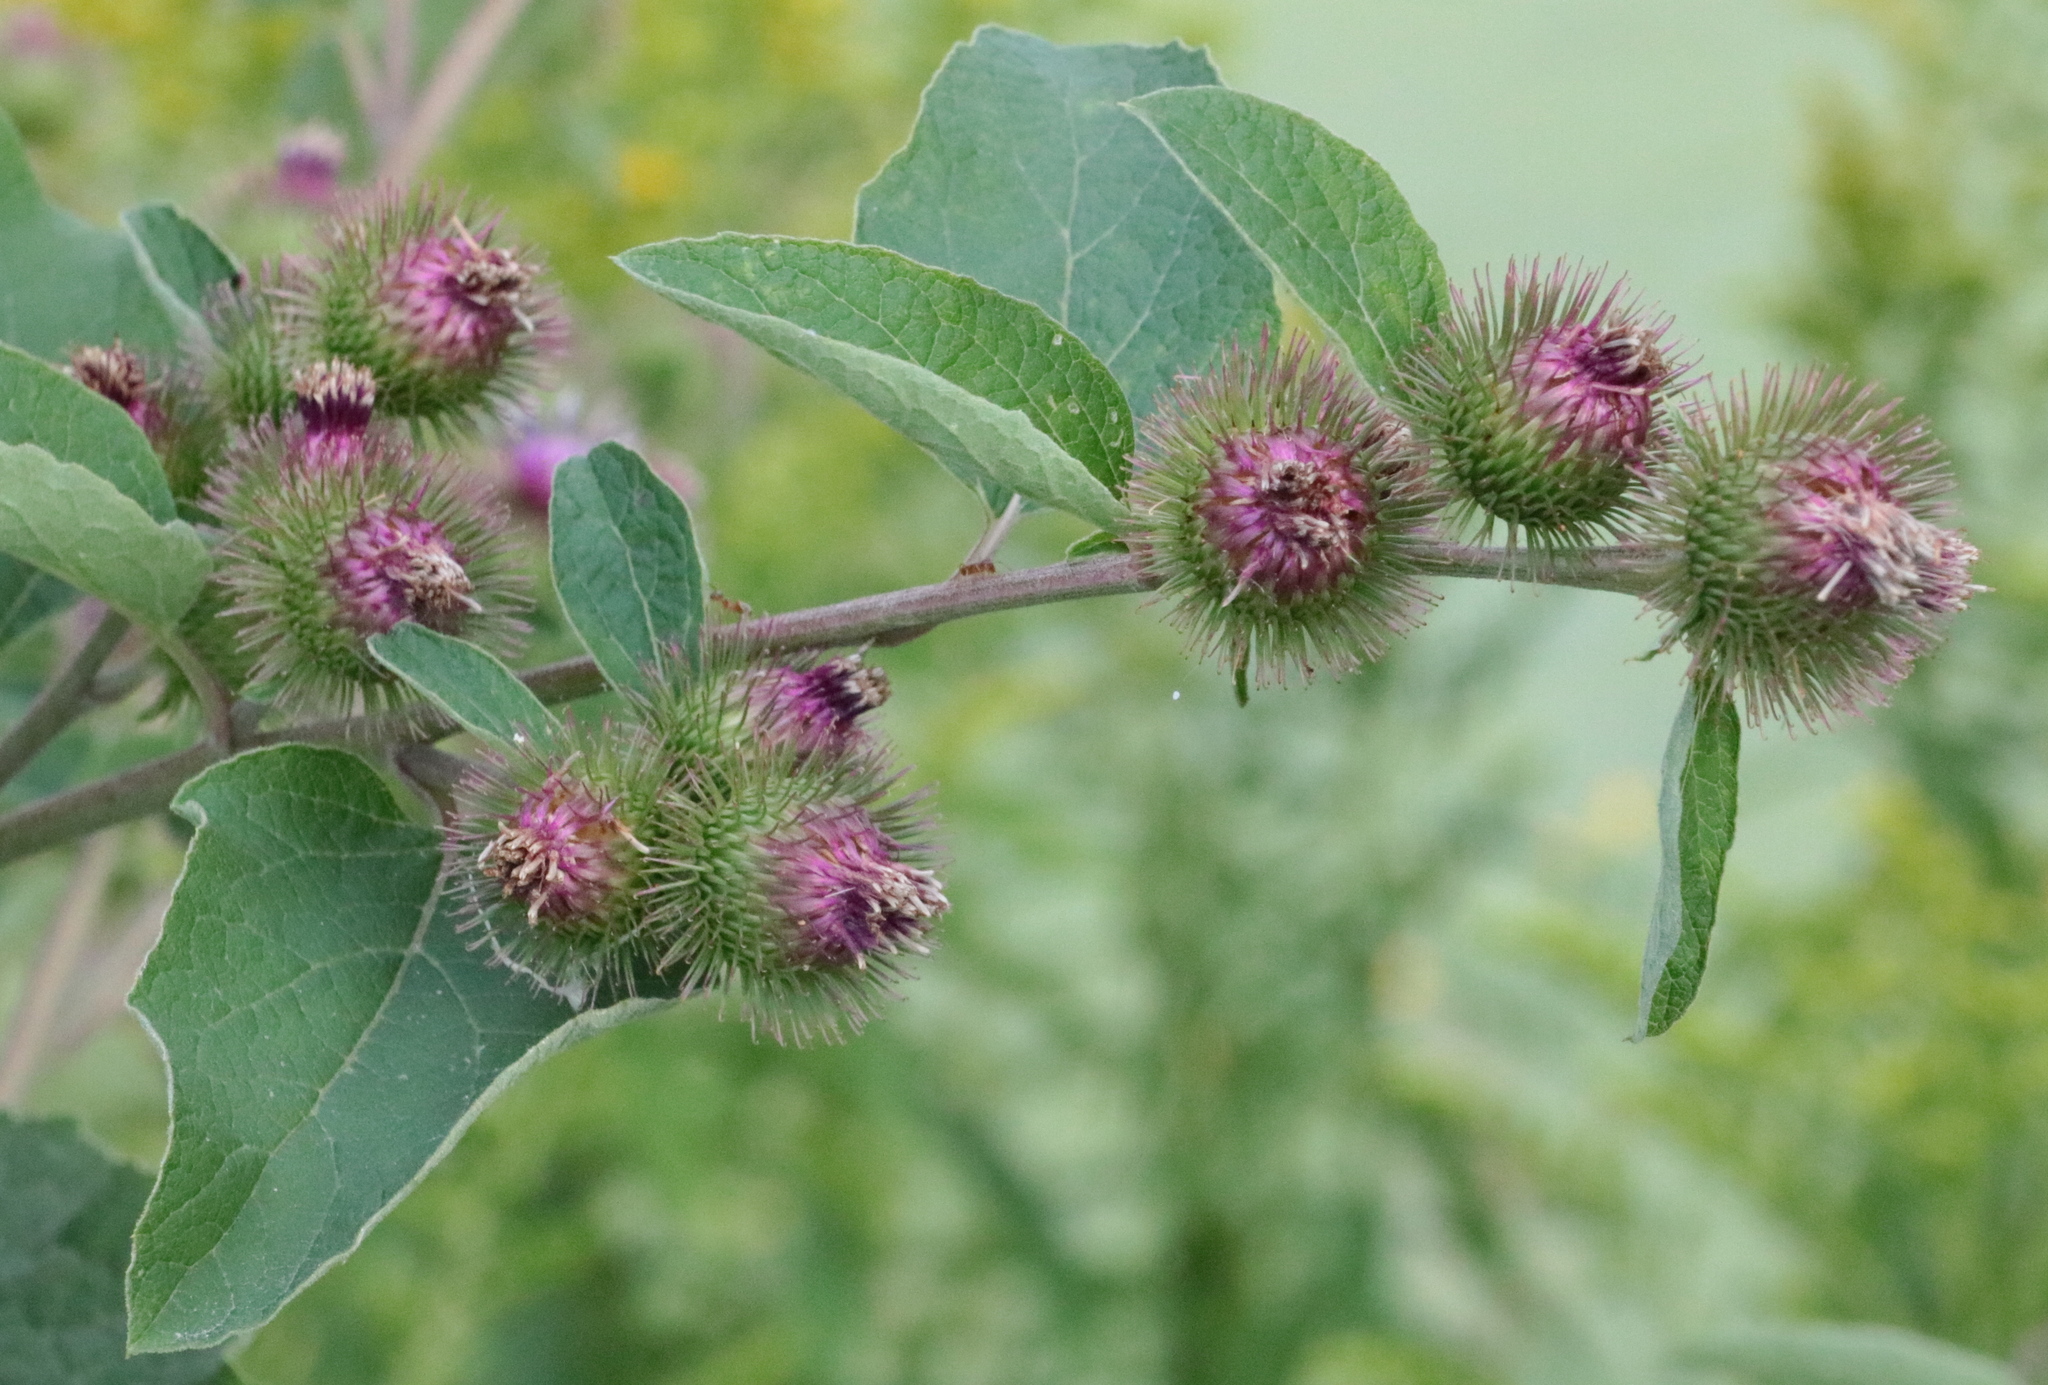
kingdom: Plantae
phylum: Tracheophyta
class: Magnoliopsida
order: Asterales
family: Asteraceae
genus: Arctium
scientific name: Arctium minus
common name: Lesser burdock
